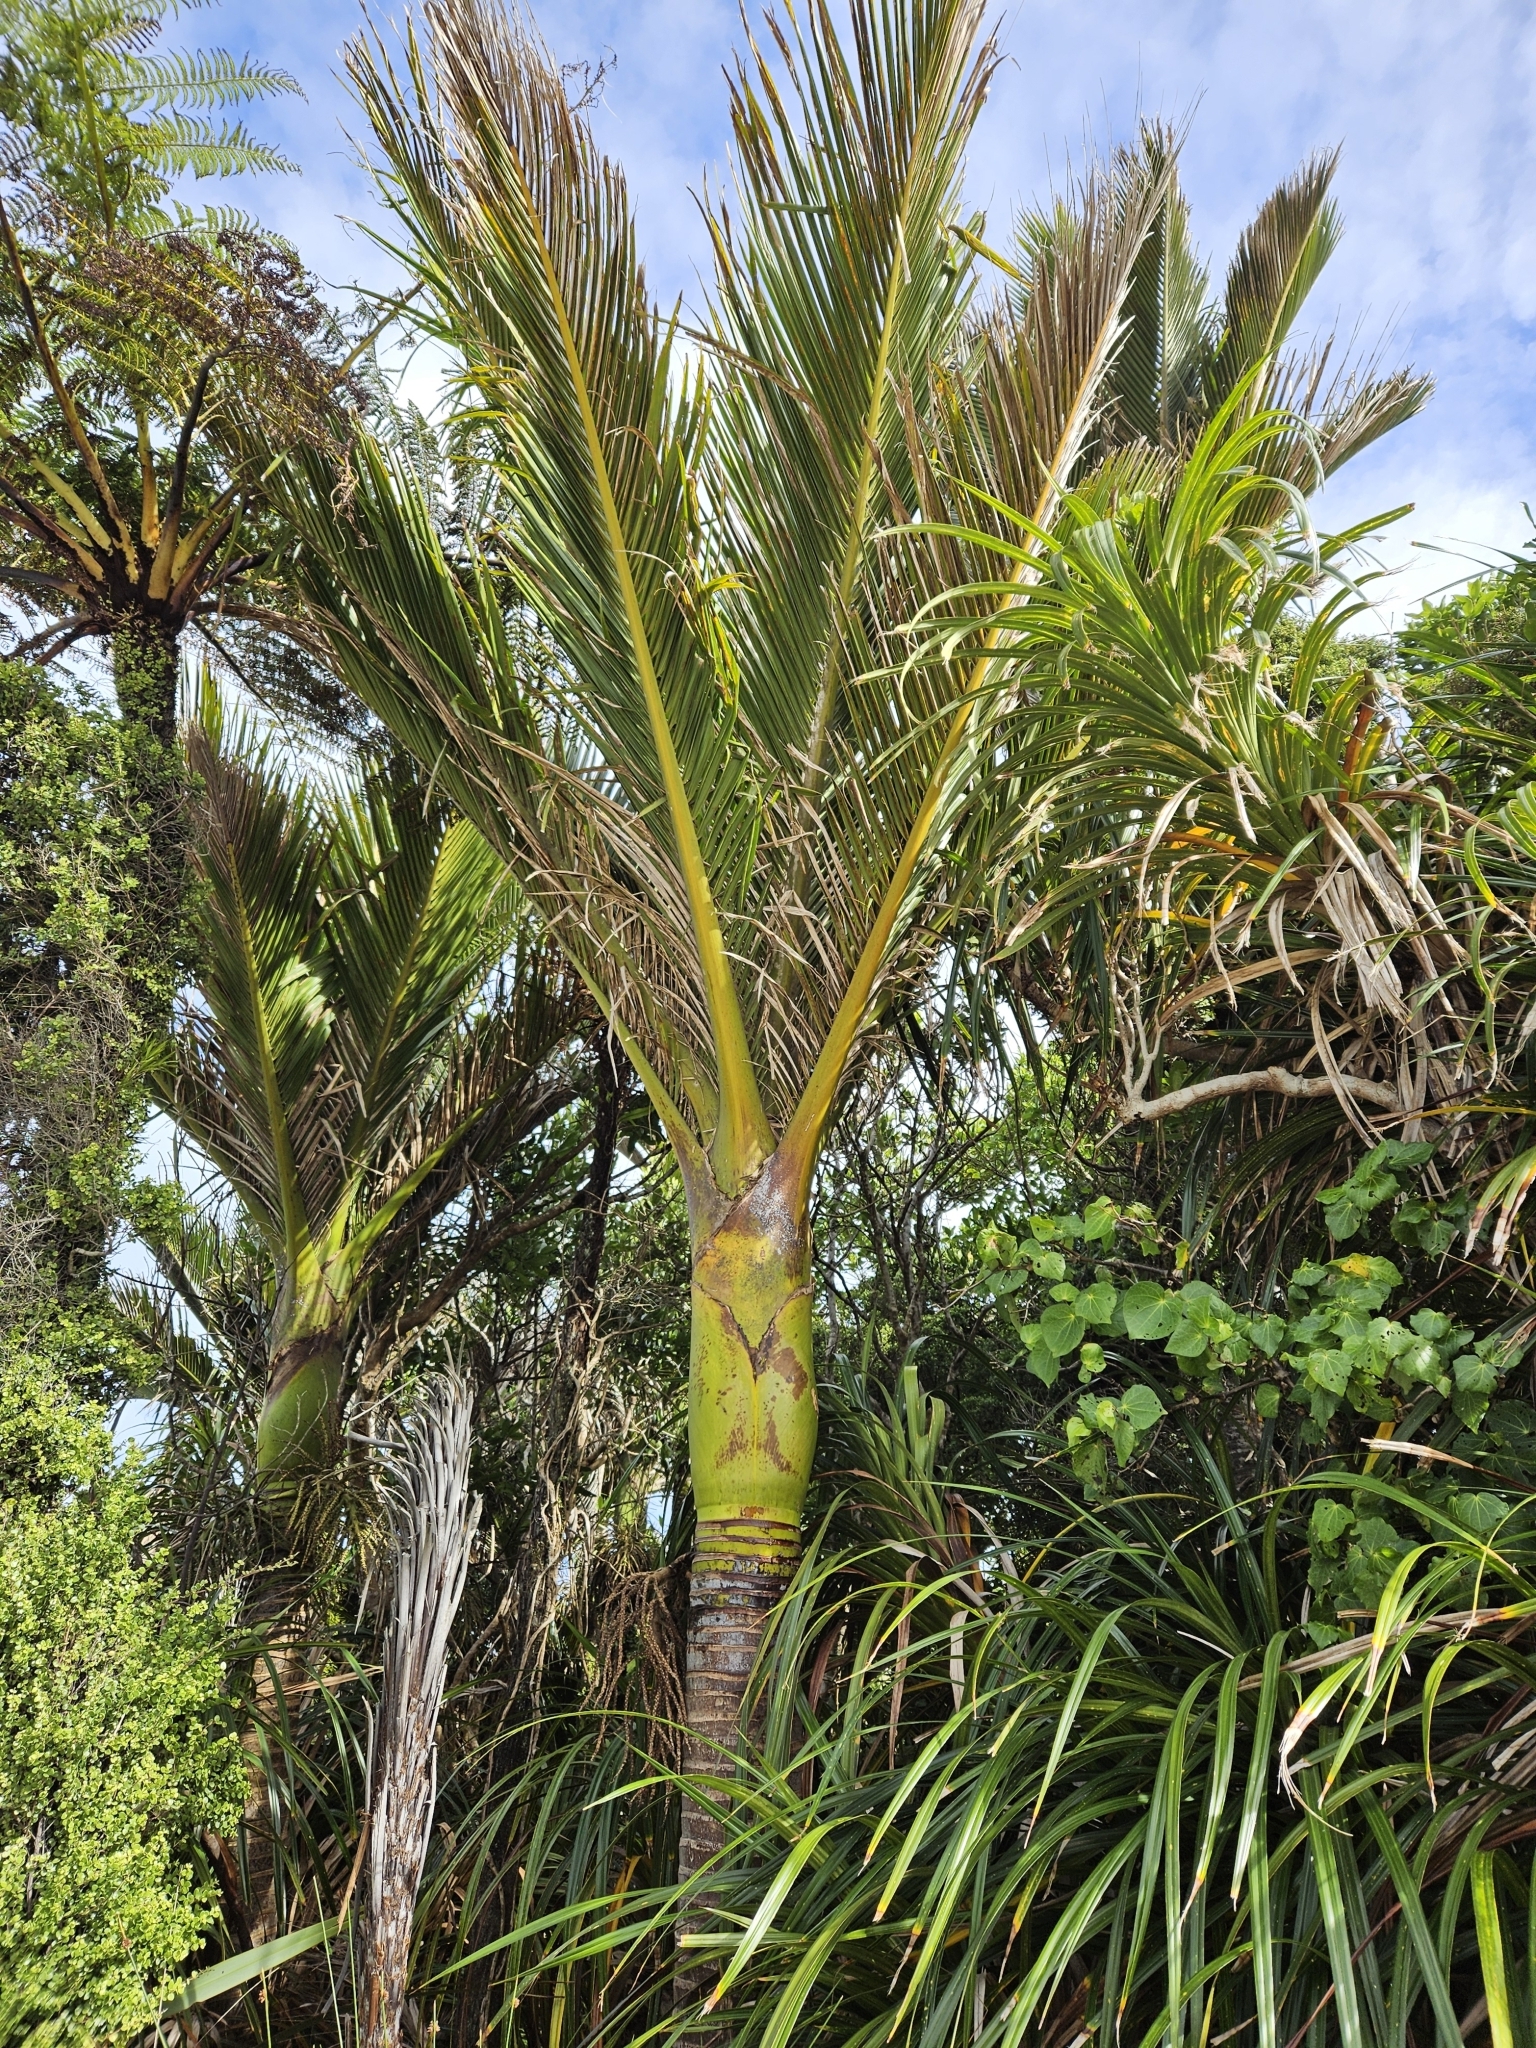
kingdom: Plantae
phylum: Tracheophyta
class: Liliopsida
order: Arecales
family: Arecaceae
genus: Rhopalostylis
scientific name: Rhopalostylis sapida
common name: Feather-duster palm
